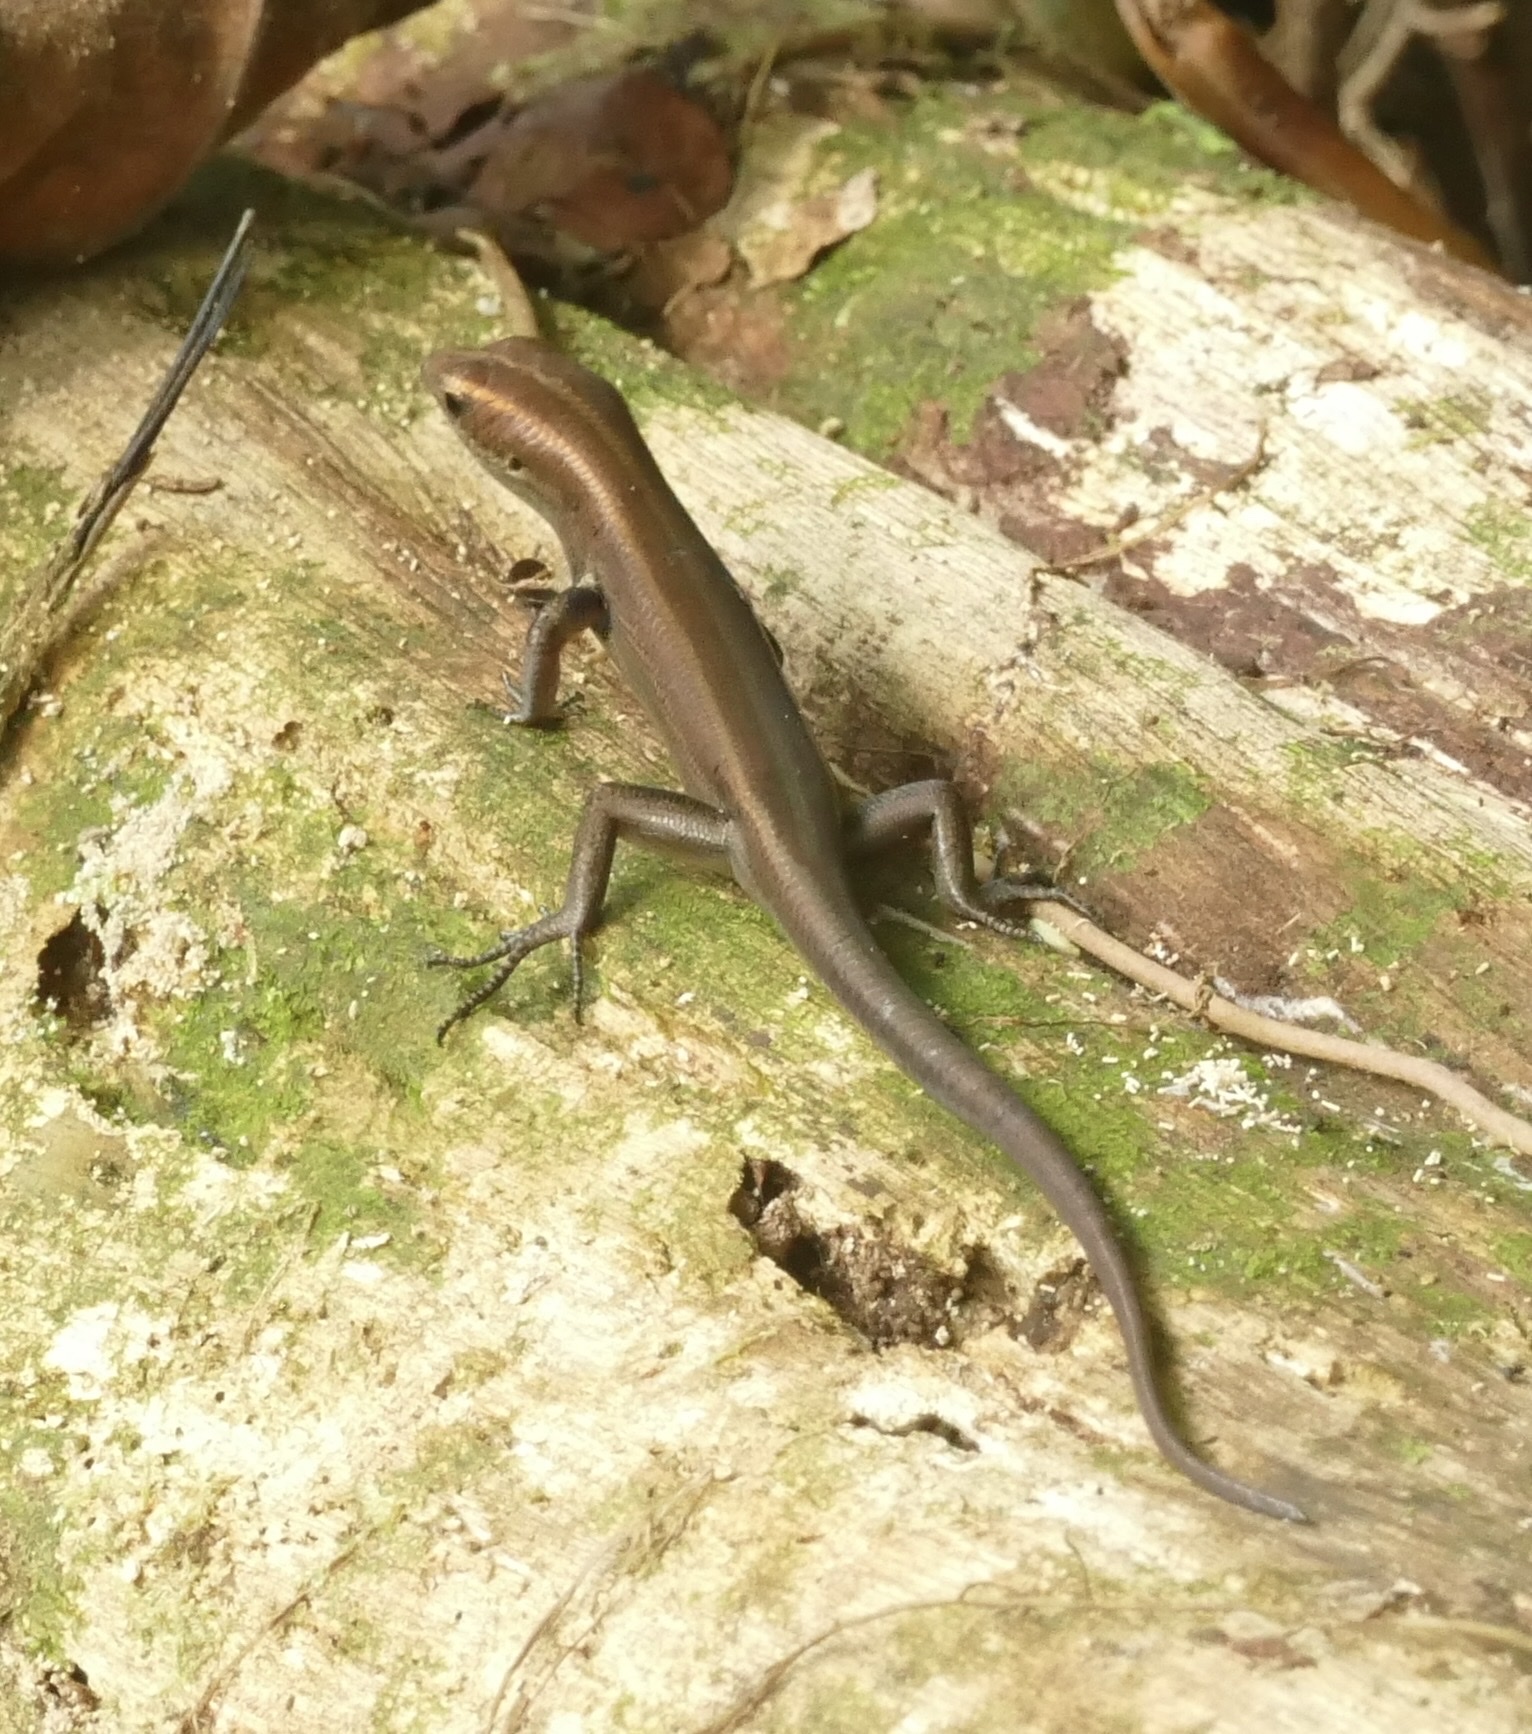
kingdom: Animalia
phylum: Chordata
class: Squamata
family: Scincidae
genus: Emoia
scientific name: Emoia caeruleocauda
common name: Pacific bluetail skink
